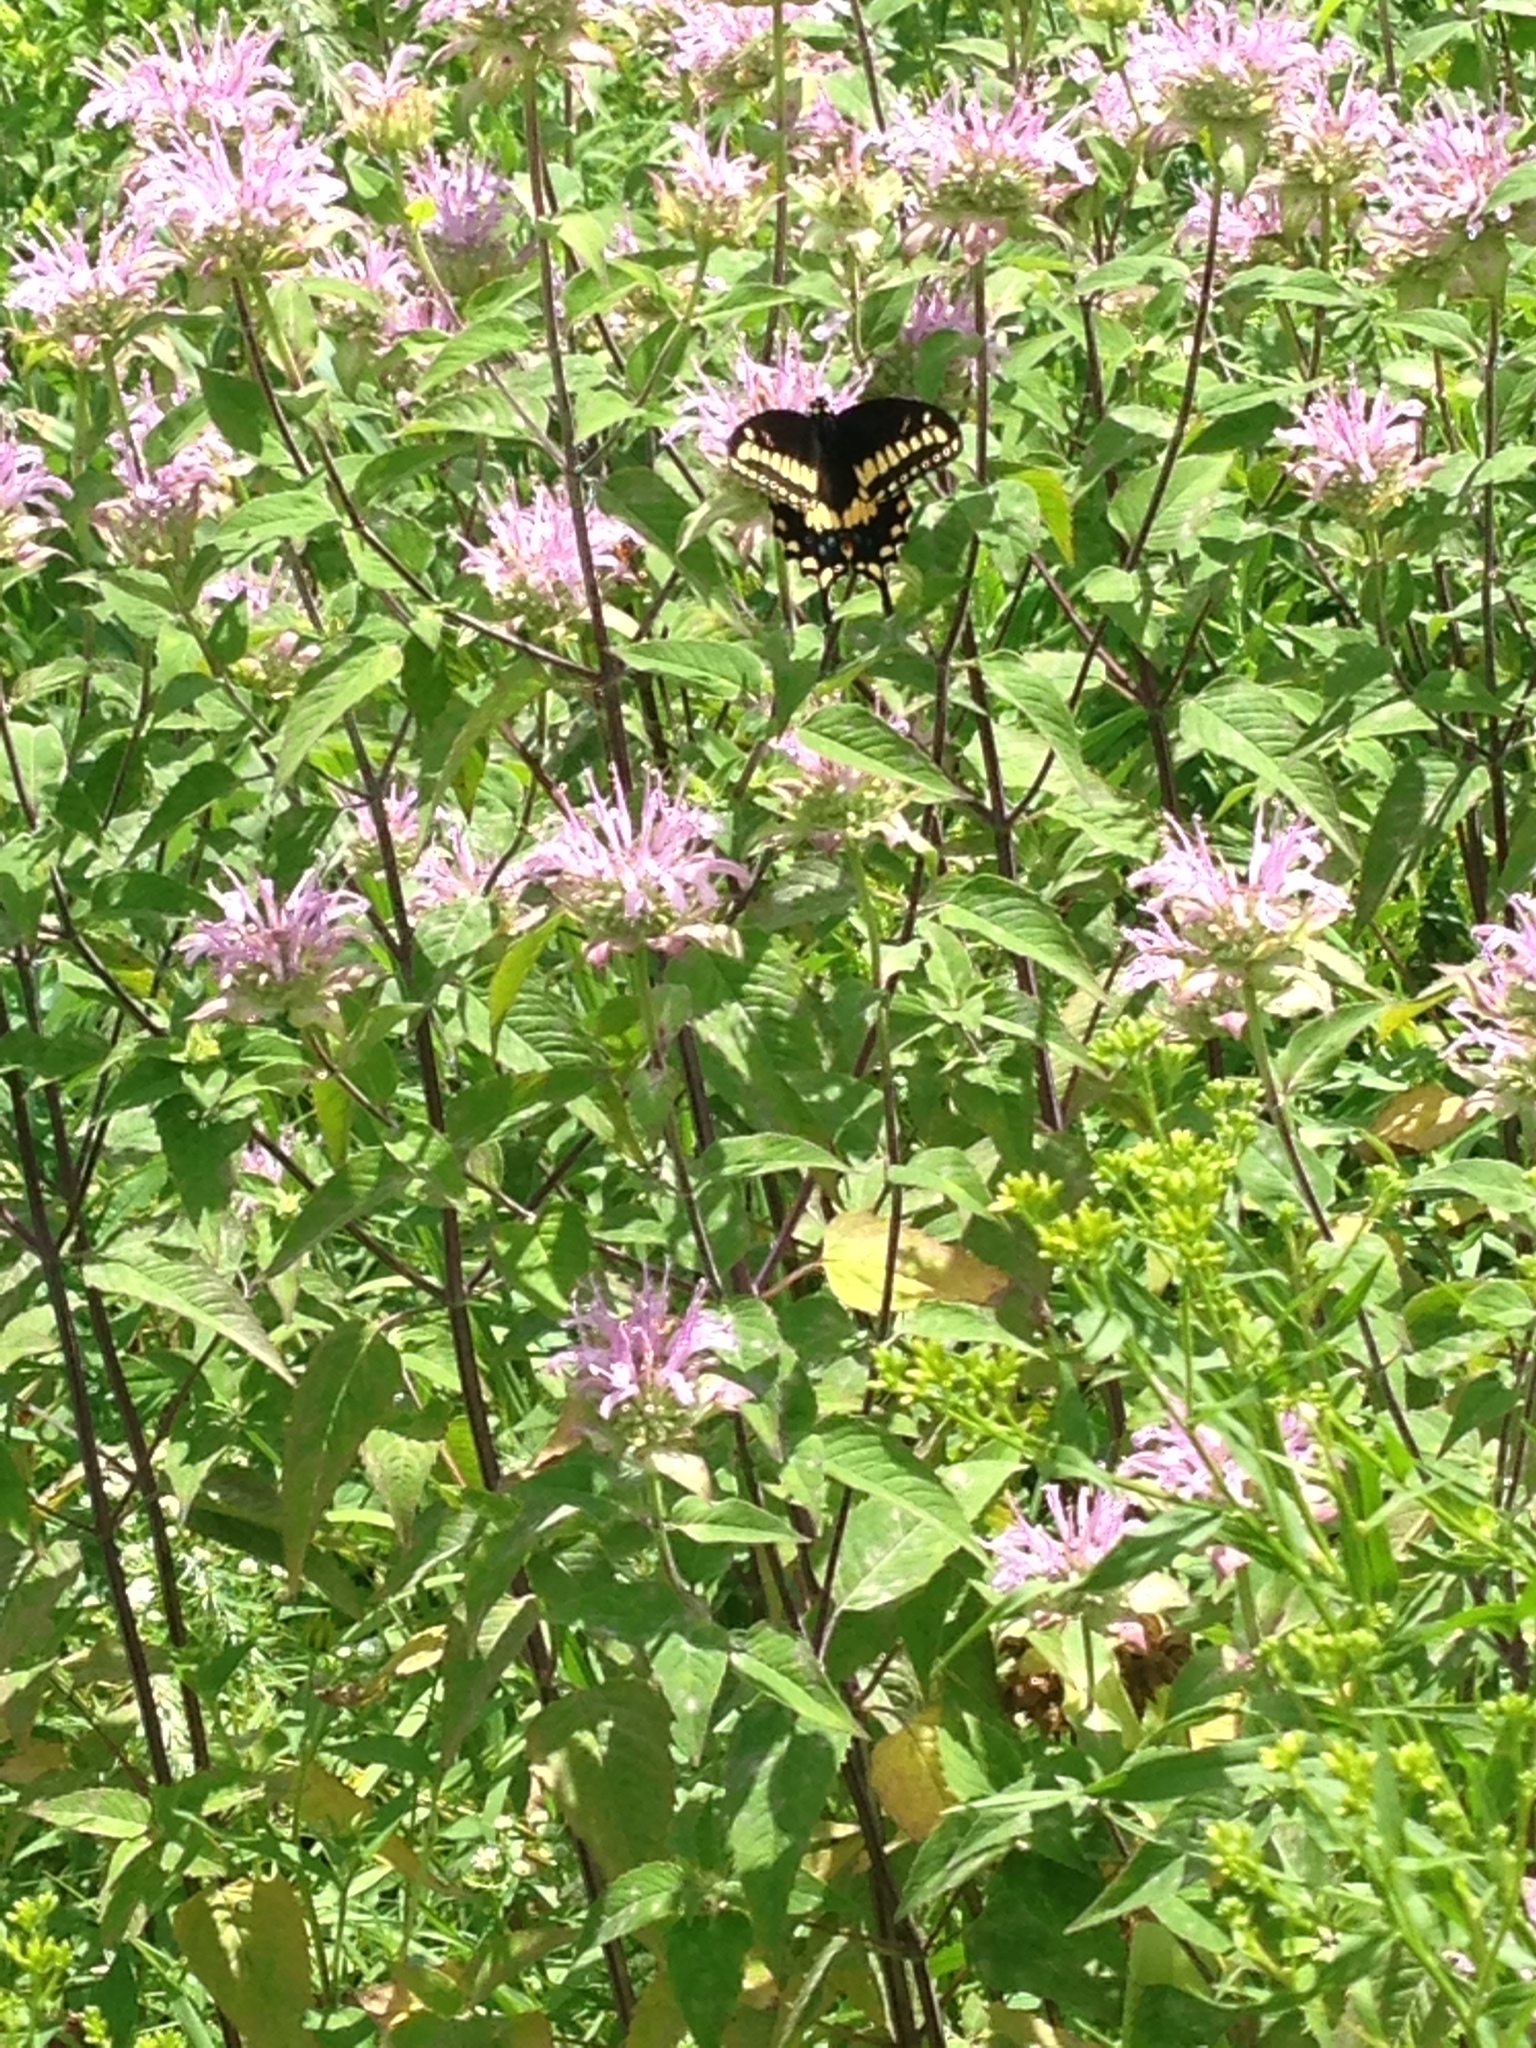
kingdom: Animalia
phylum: Arthropoda
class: Insecta
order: Lepidoptera
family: Papilionidae
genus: Papilio
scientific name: Papilio polyxenes
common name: Black swallowtail
